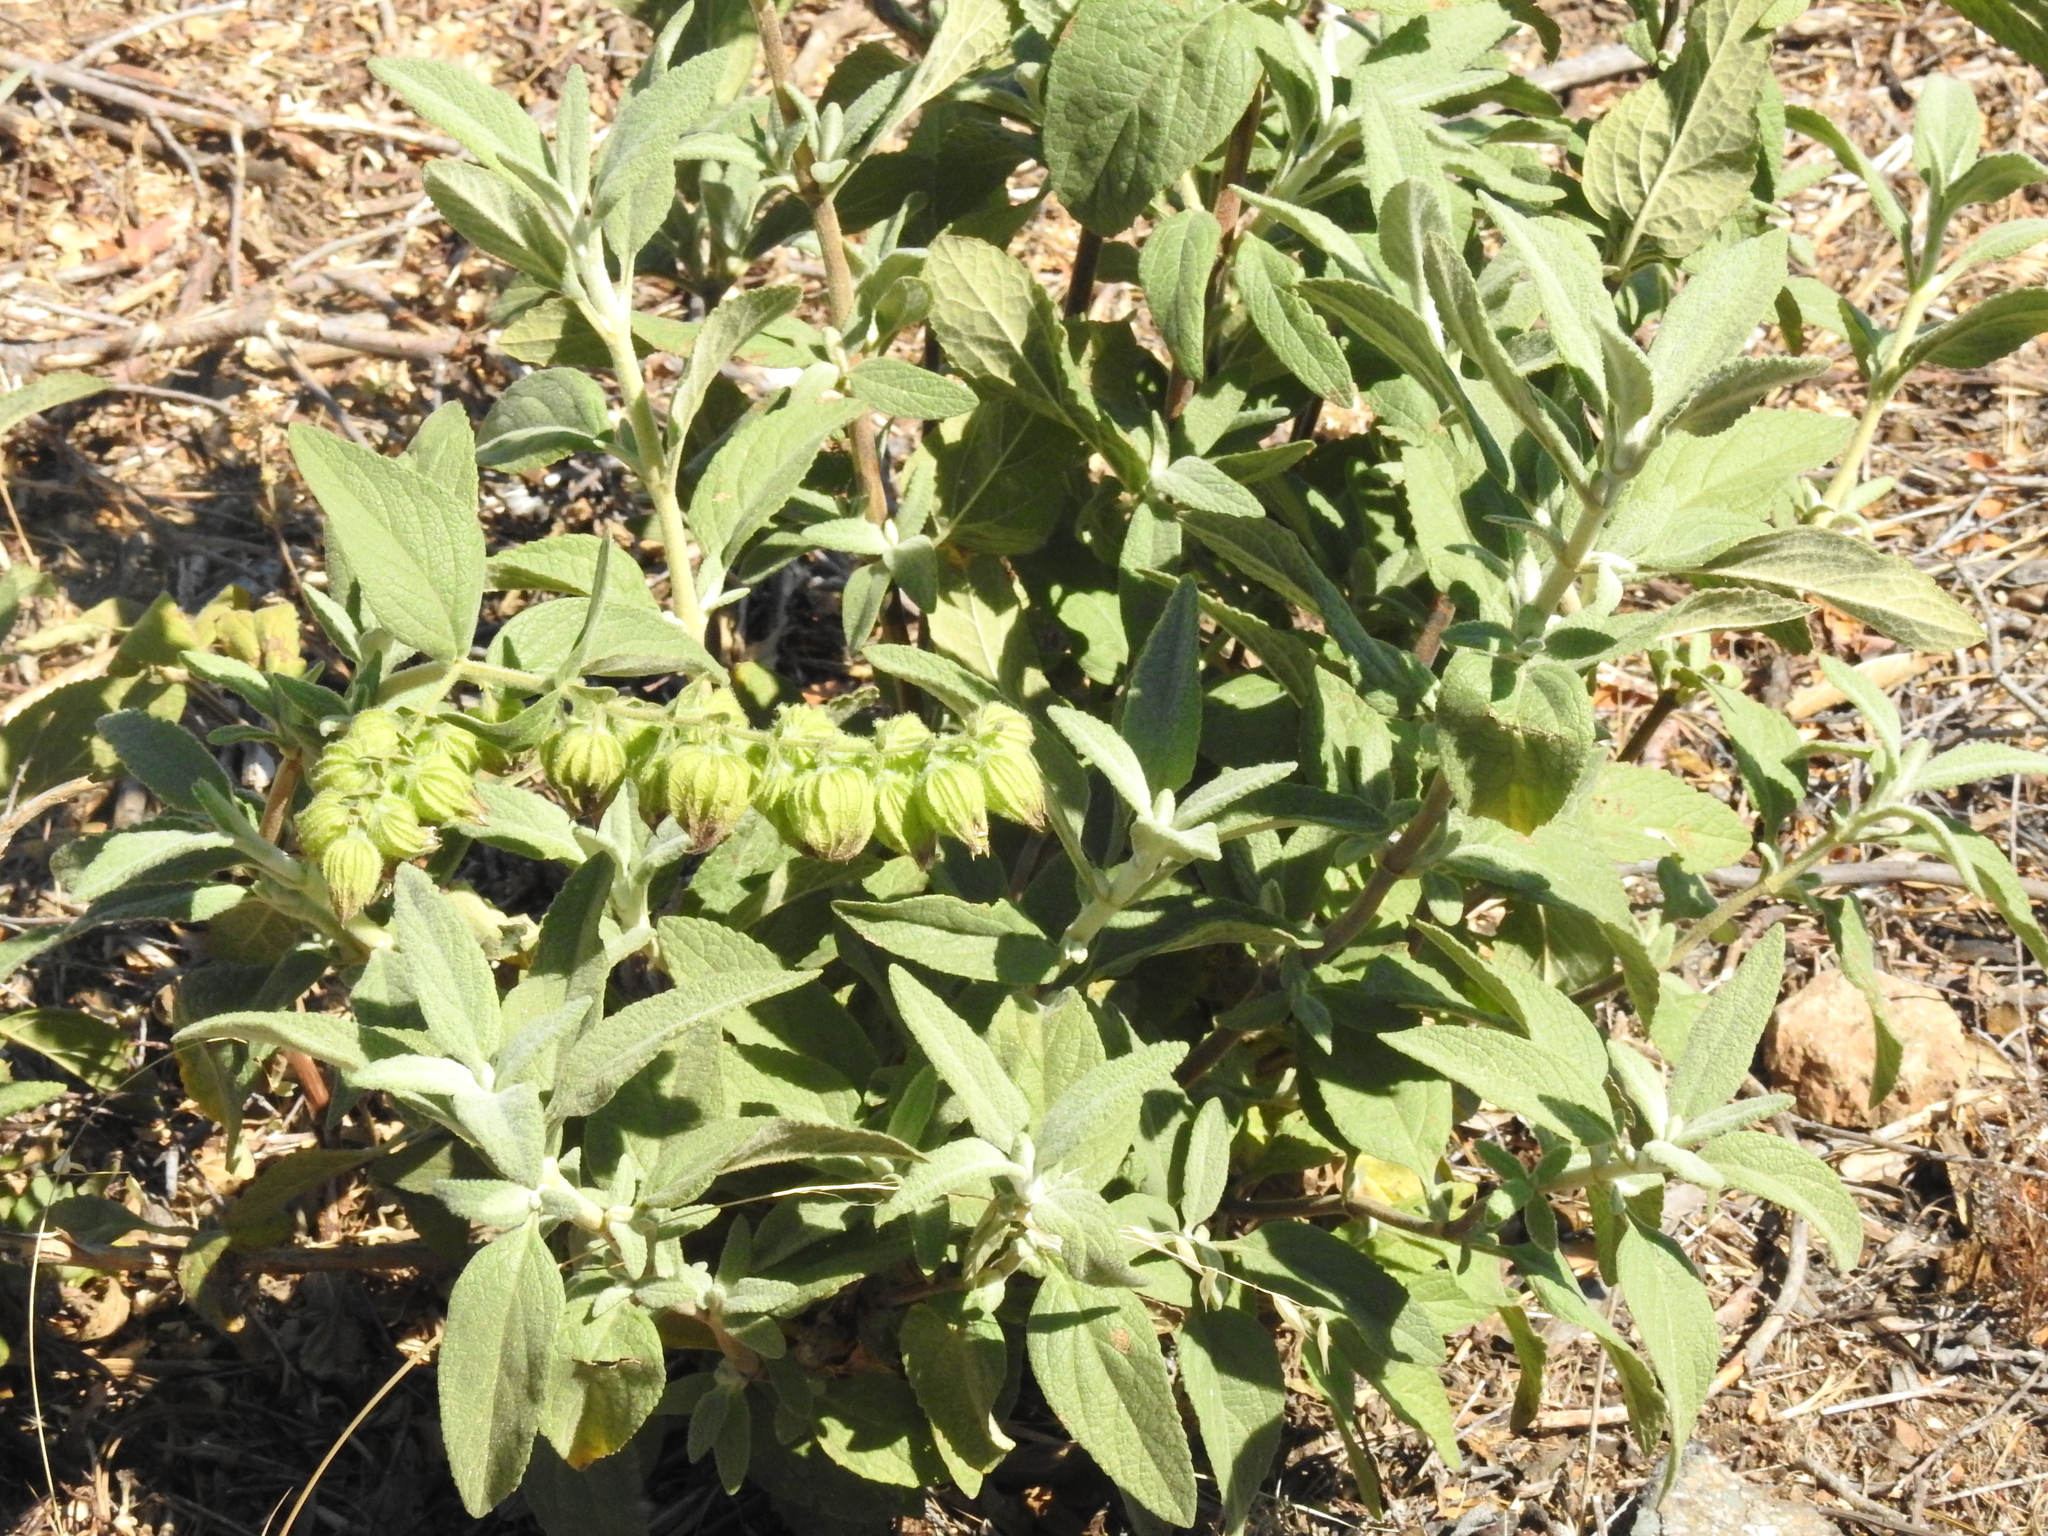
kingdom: Plantae
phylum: Tracheophyta
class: Magnoliopsida
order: Lamiales
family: Lamiaceae
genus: Lepechinia
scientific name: Lepechinia calycina
